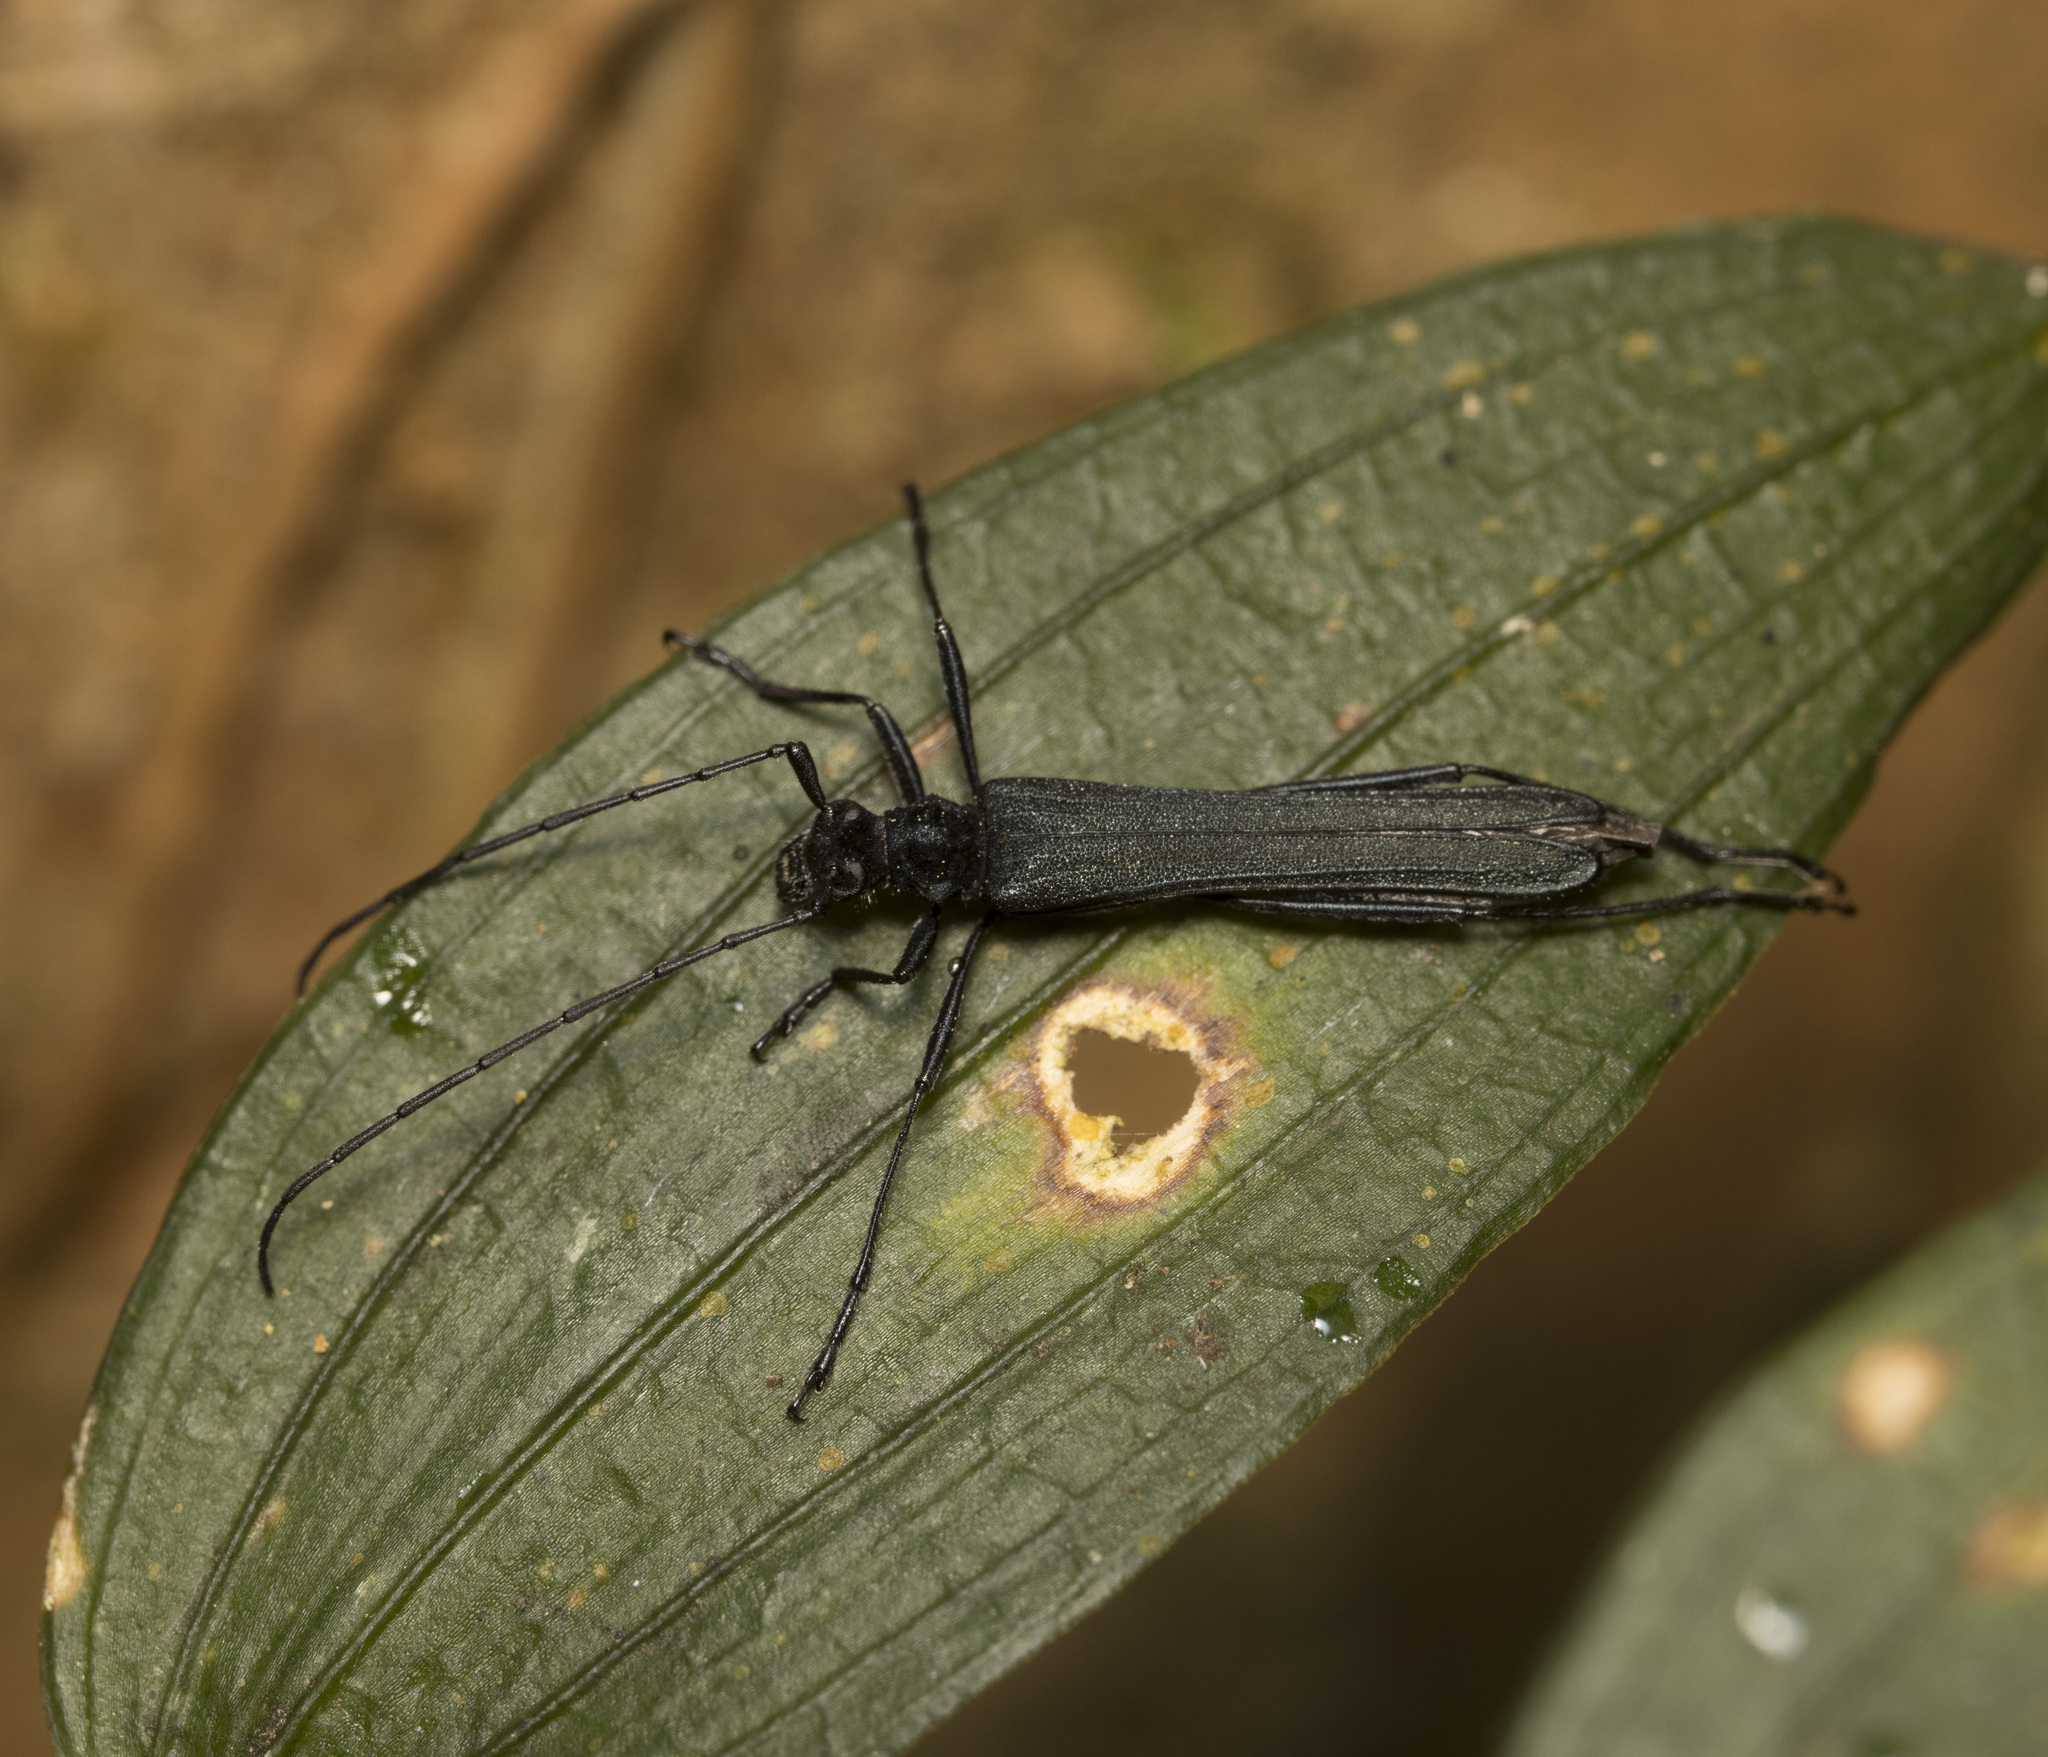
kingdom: Animalia
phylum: Arthropoda
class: Insecta
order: Coleoptera
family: Cerambycidae
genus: Stenorhopalus
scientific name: Stenorhopalus gracilis
